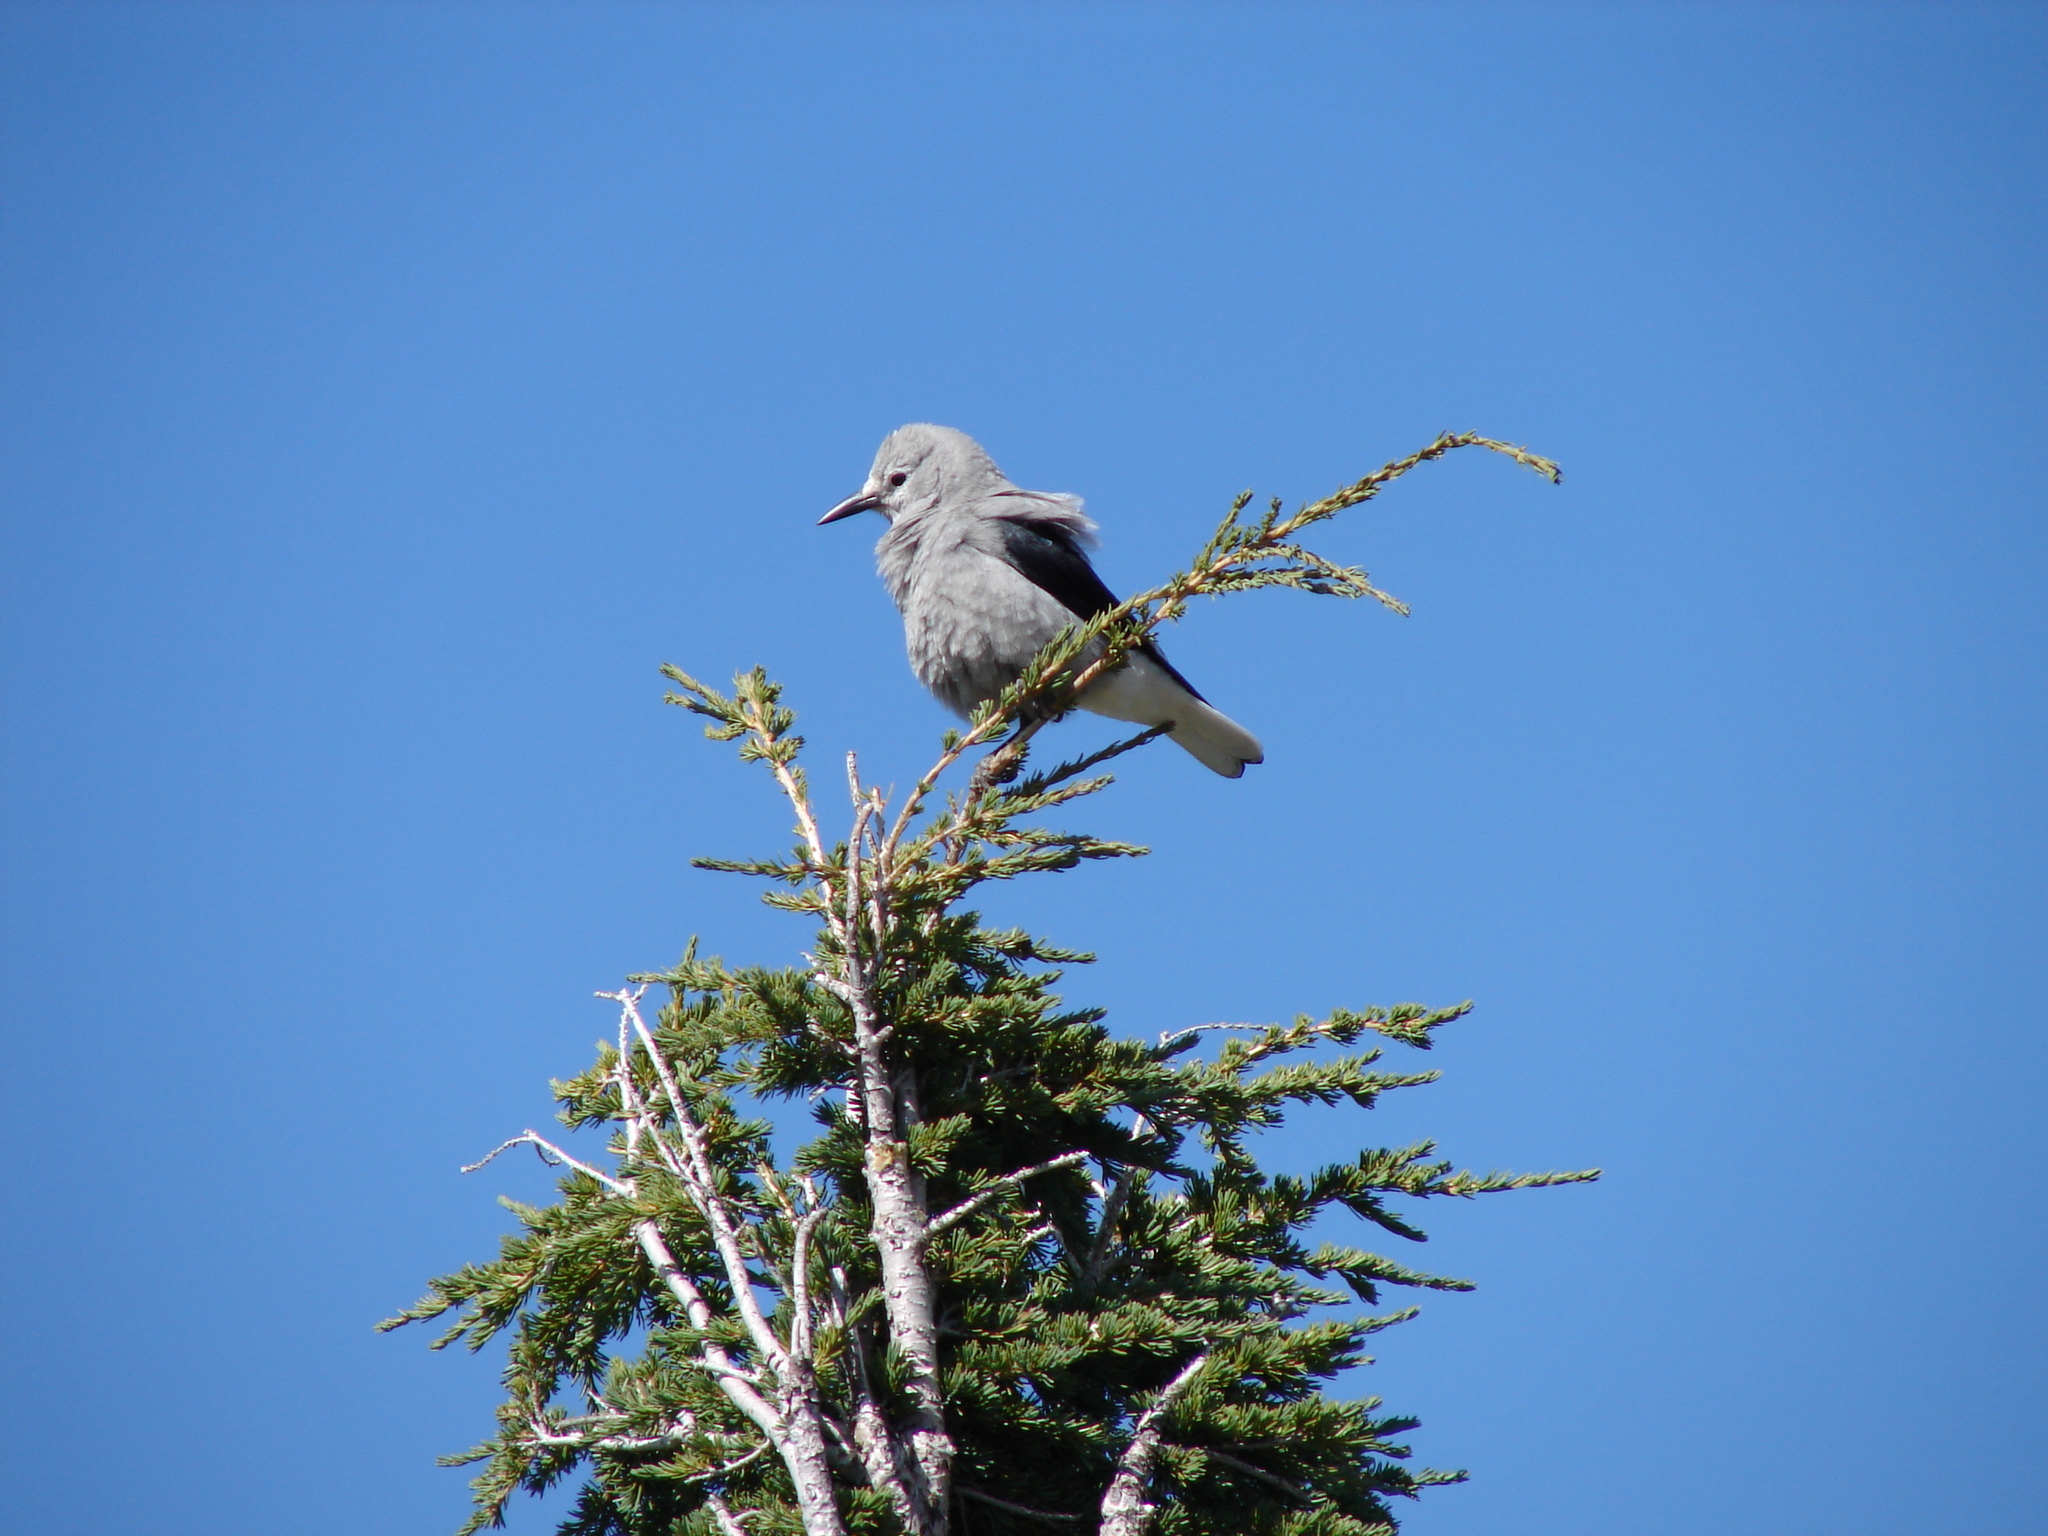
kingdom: Animalia
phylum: Chordata
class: Aves
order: Passeriformes
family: Corvidae
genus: Nucifraga
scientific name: Nucifraga columbiana
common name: Clark's nutcracker
